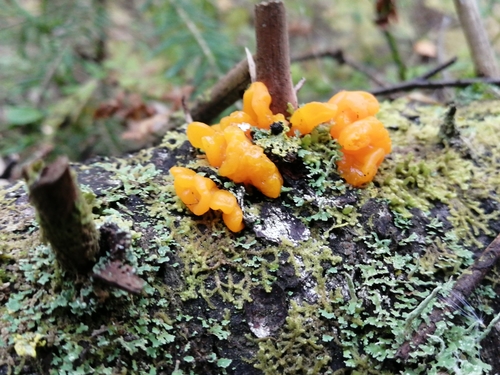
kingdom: Fungi
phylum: Basidiomycota
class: Dacrymycetes
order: Dacrymycetales
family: Dacrymycetaceae
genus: Dacrymyces
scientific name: Dacrymyces chrysospermus
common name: Orange jelly spot
